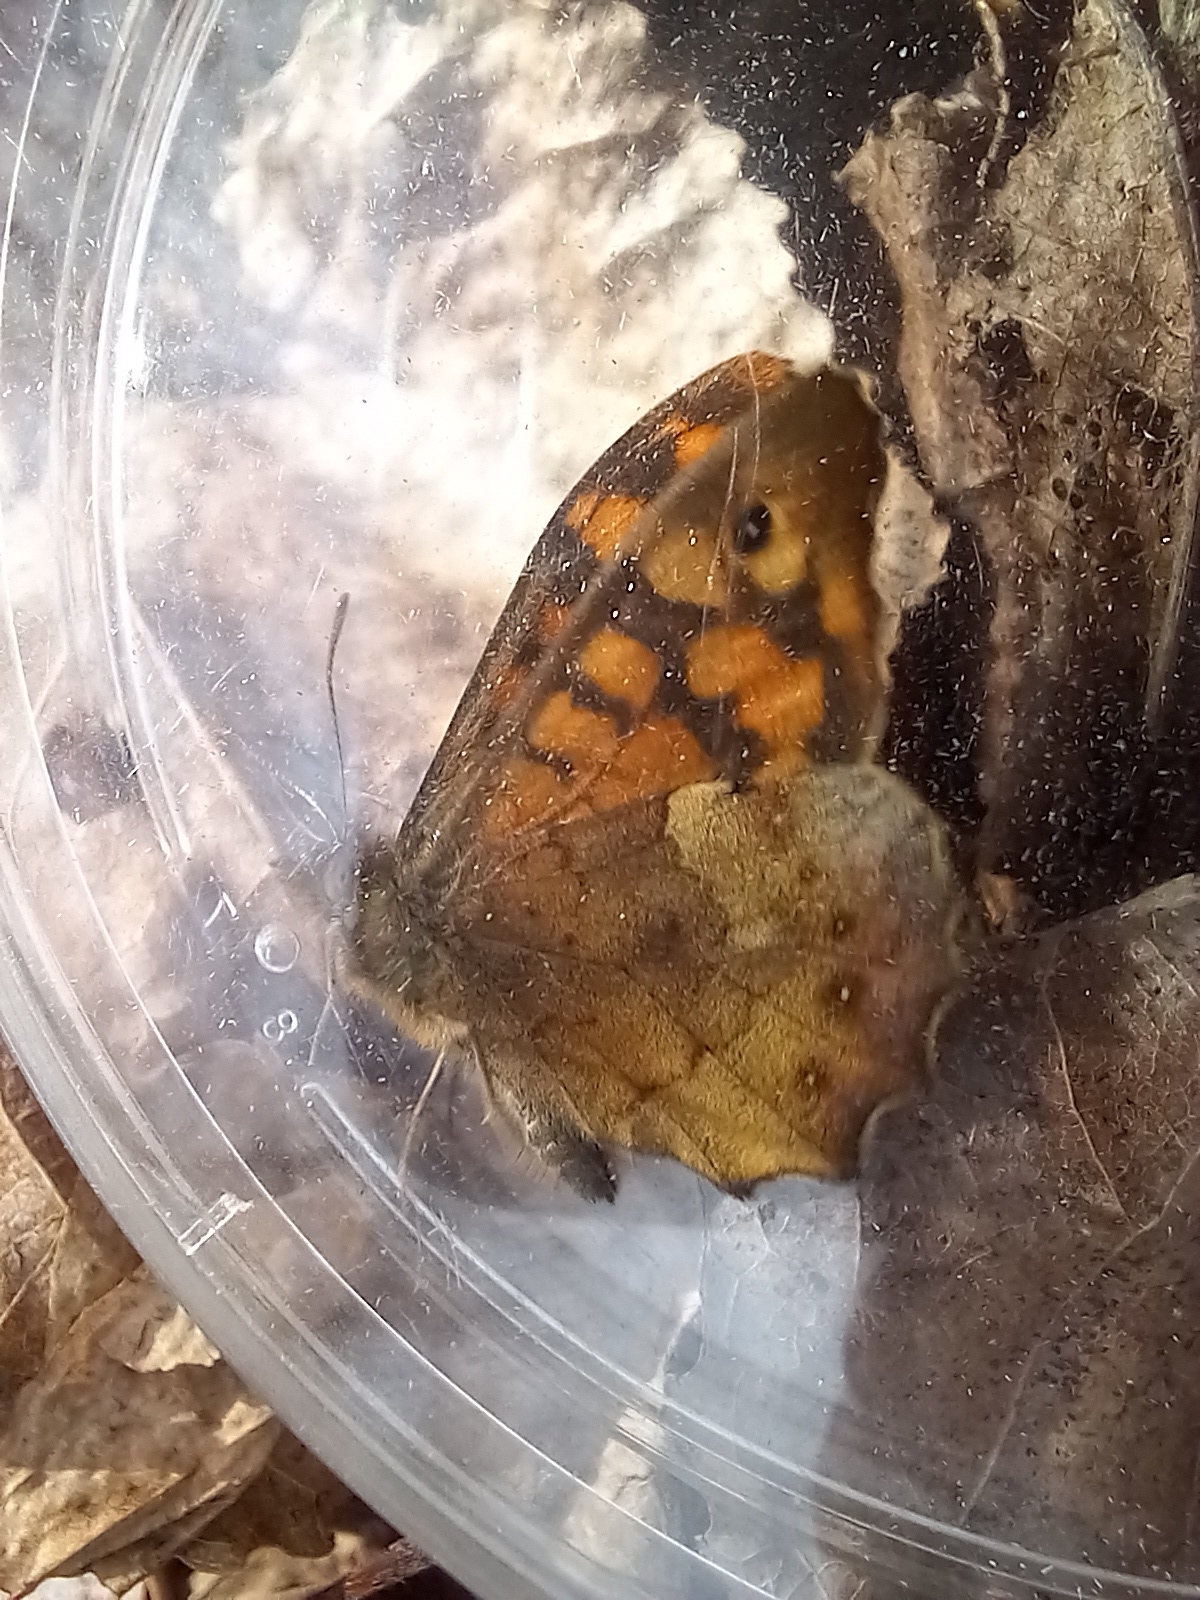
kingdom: Animalia
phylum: Arthropoda
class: Insecta
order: Lepidoptera
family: Nymphalidae
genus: Pararge
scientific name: Pararge aegeria
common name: Speckled wood
